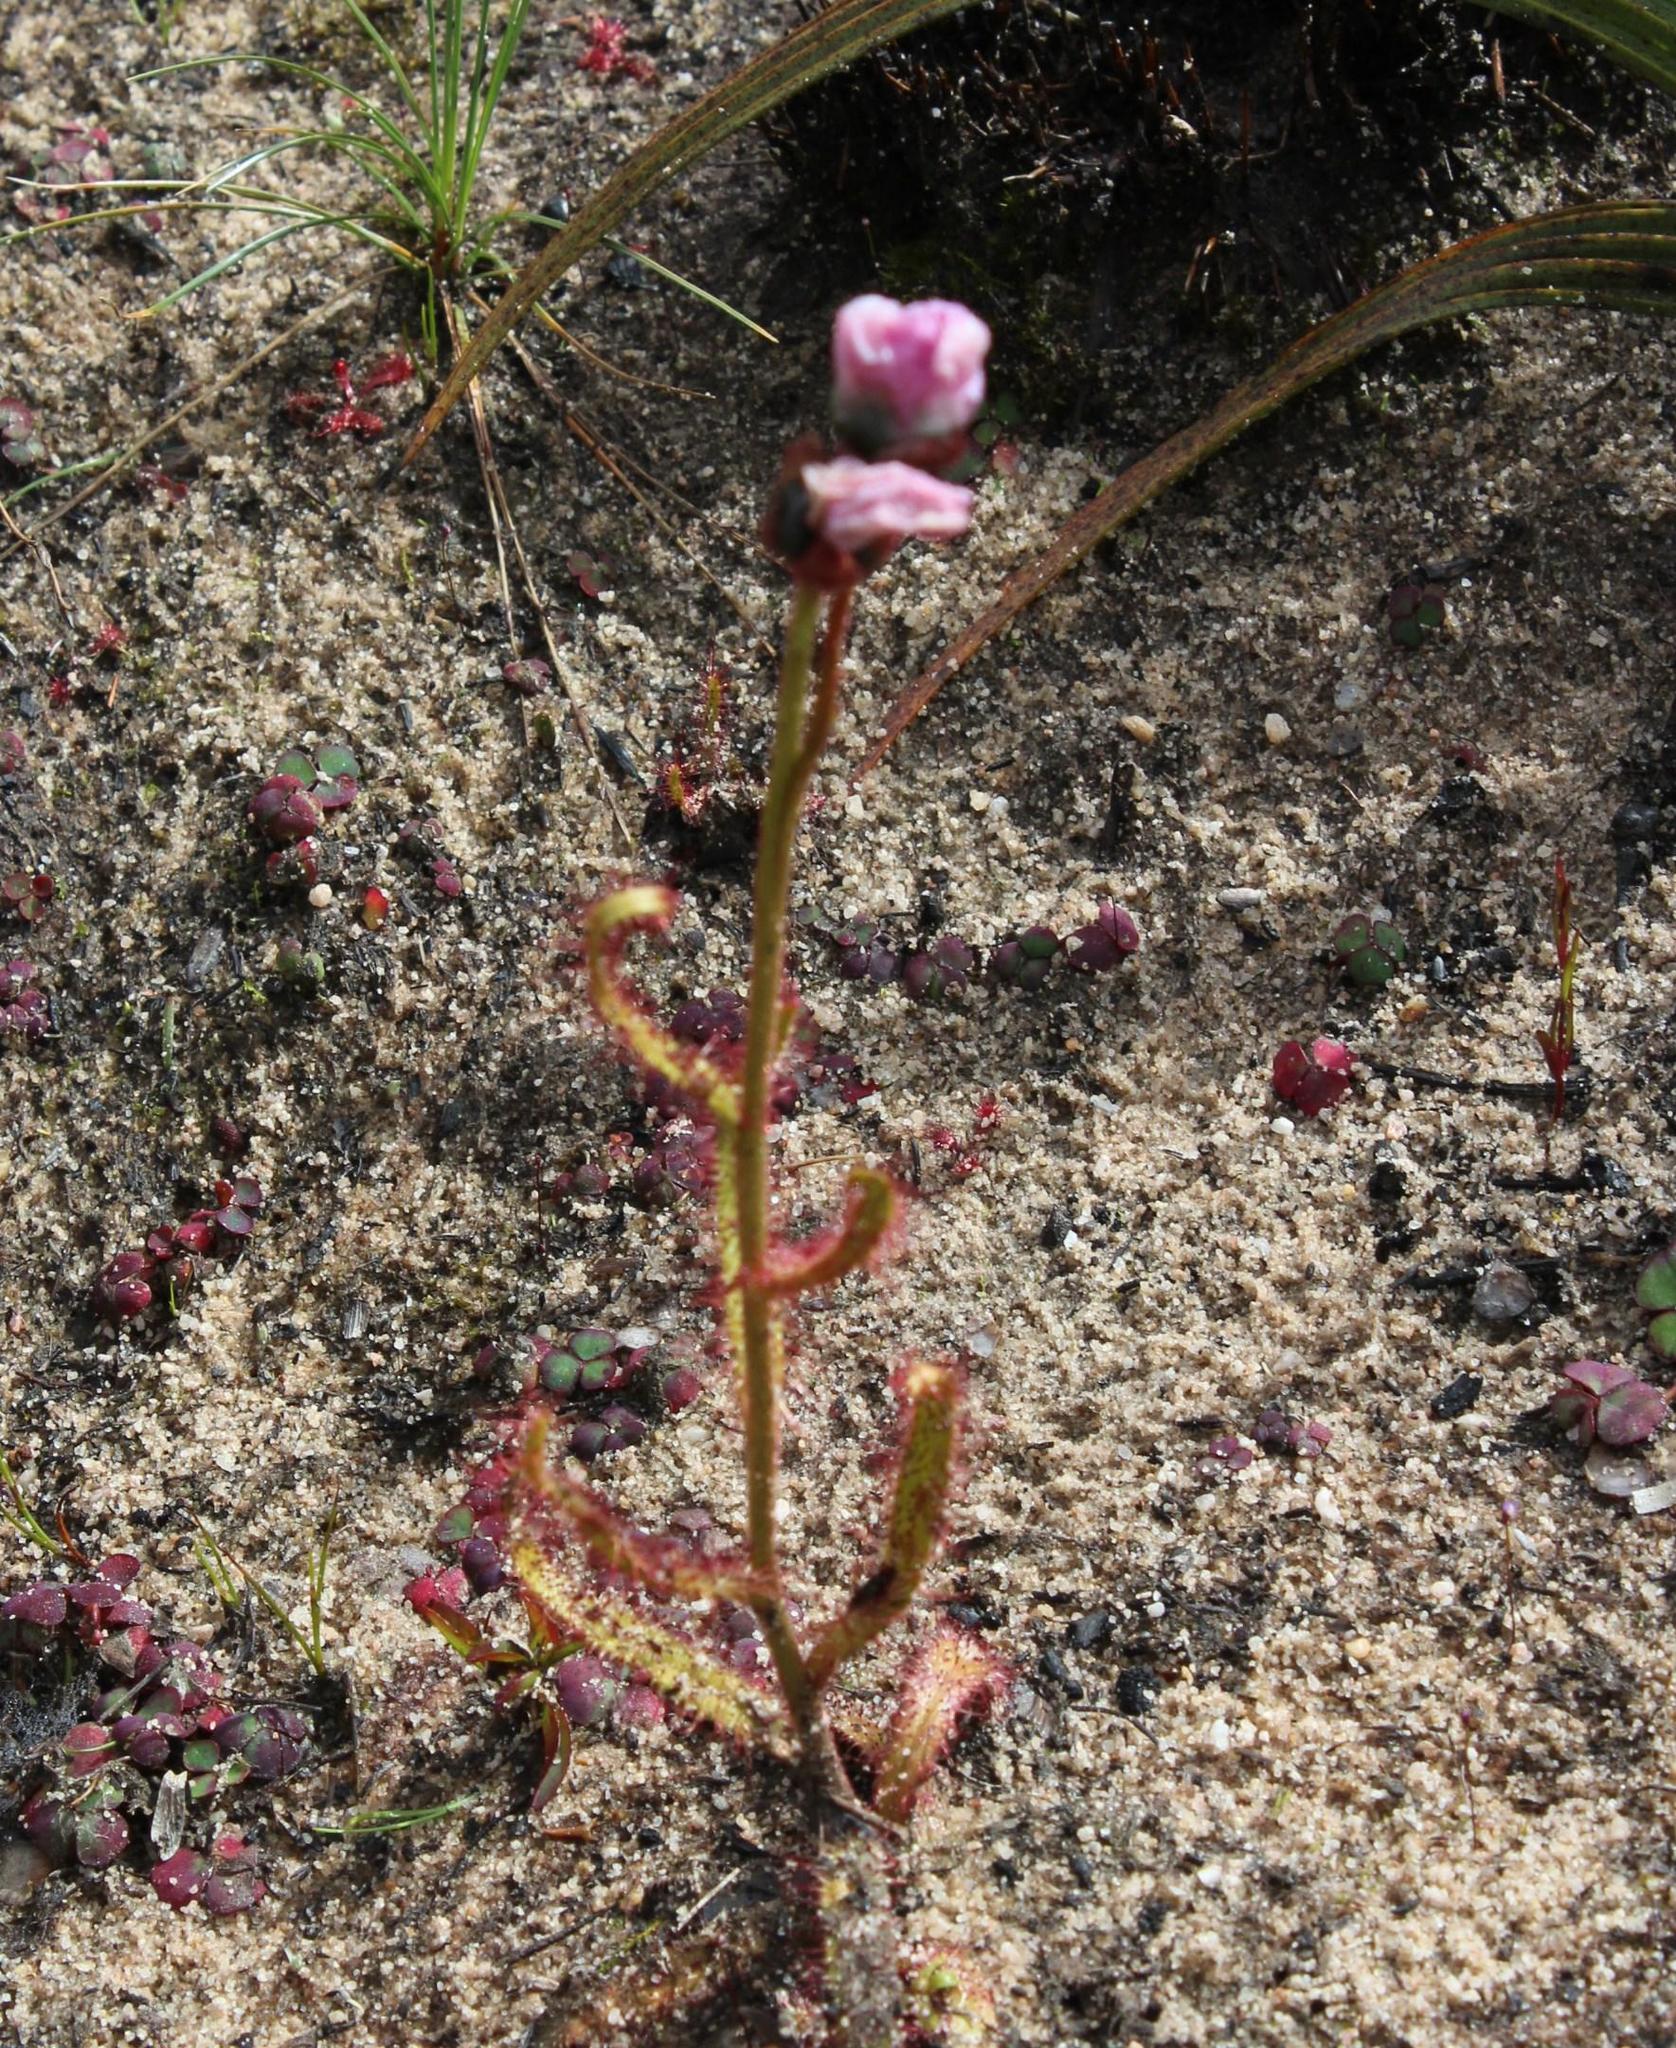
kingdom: Plantae
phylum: Tracheophyta
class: Magnoliopsida
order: Caryophyllales
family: Droseraceae
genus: Drosera
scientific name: Drosera cistiflora
